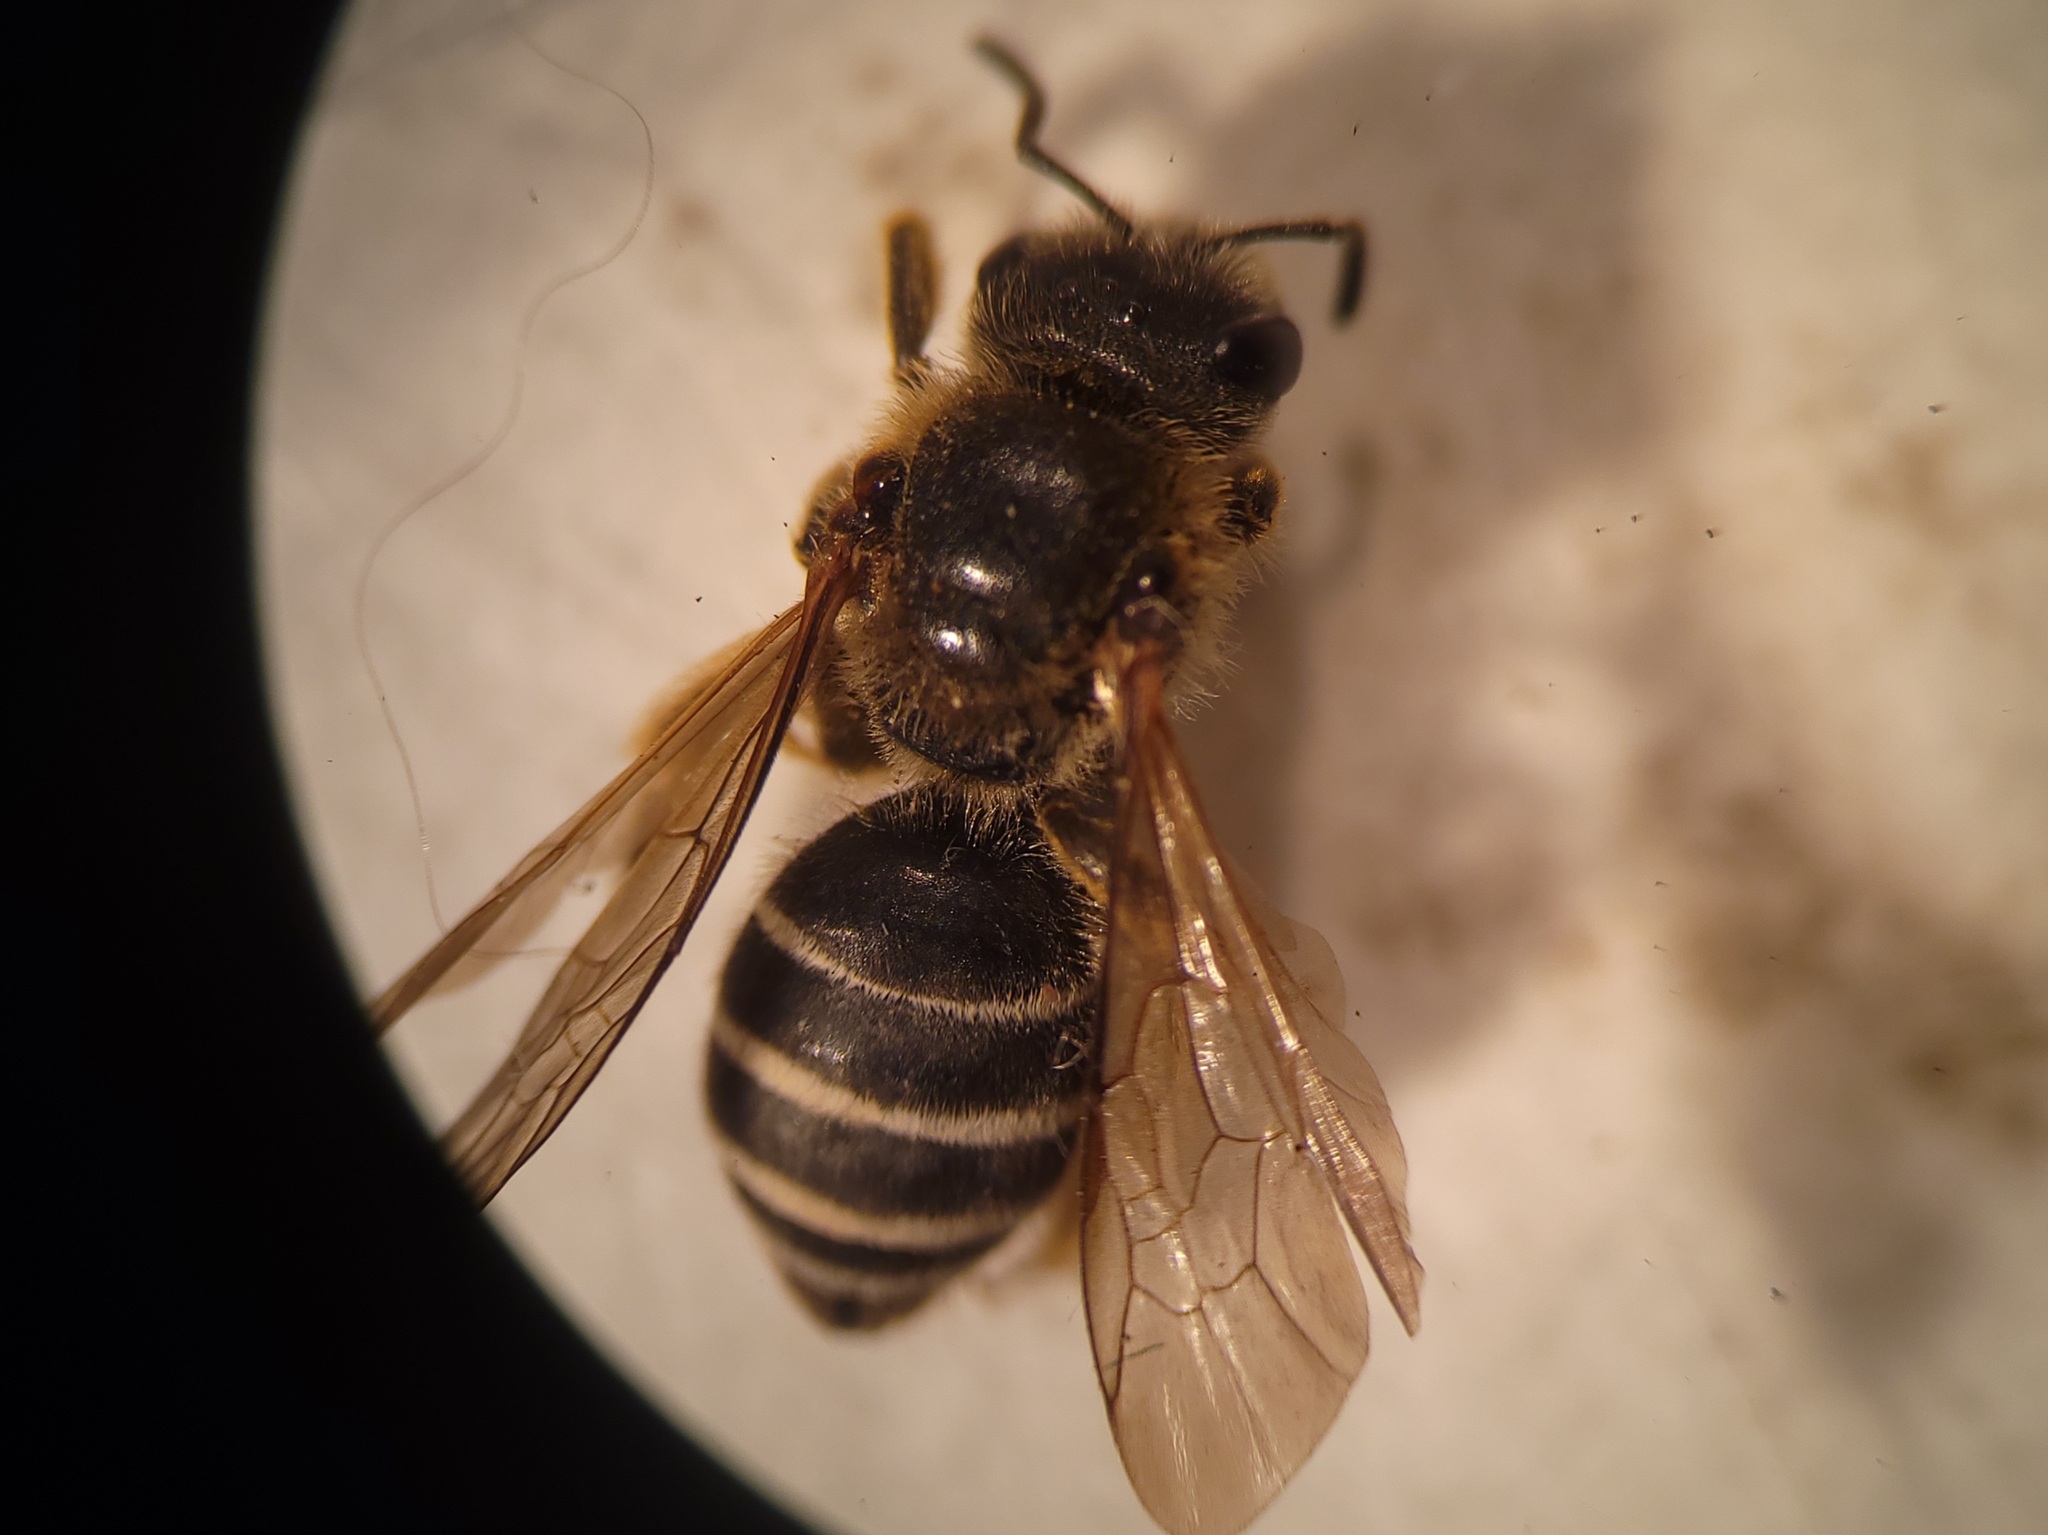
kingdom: Animalia
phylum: Arthropoda
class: Insecta
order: Hymenoptera
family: Halictidae
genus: Halictus
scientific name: Halictus rubicundus
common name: Orange-legged furrow bee
